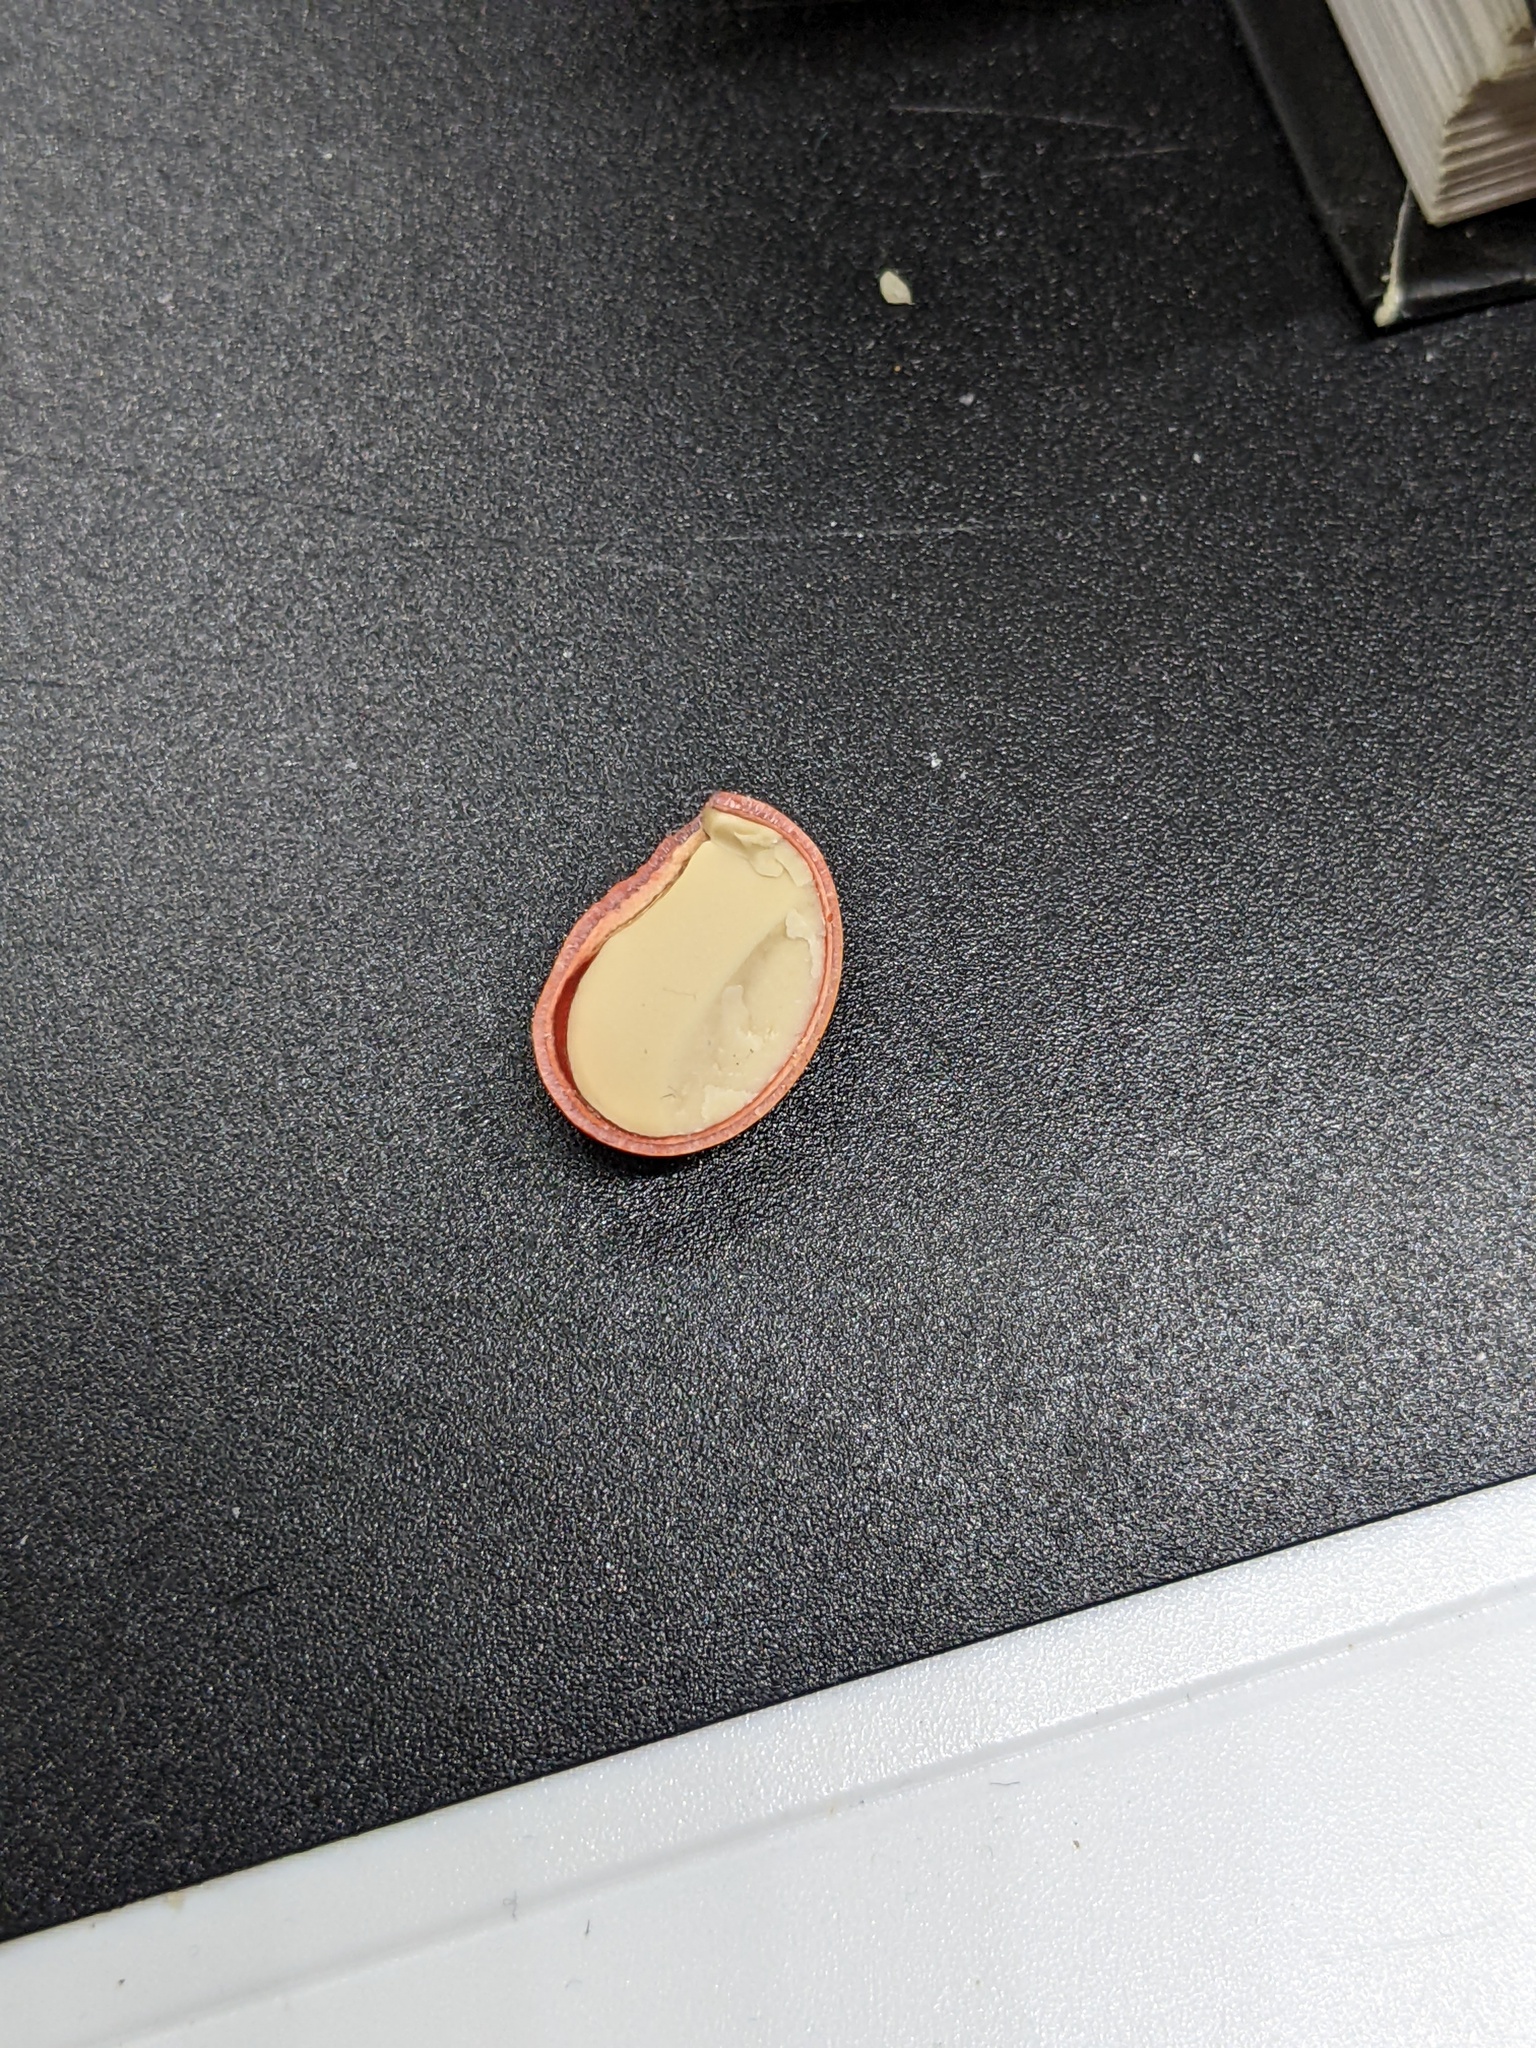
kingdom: Plantae
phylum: Tracheophyta
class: Magnoliopsida
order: Fabales
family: Fabaceae
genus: Dermatophyllum
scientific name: Dermatophyllum secundiflorum
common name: Texas-mountain-laurel
